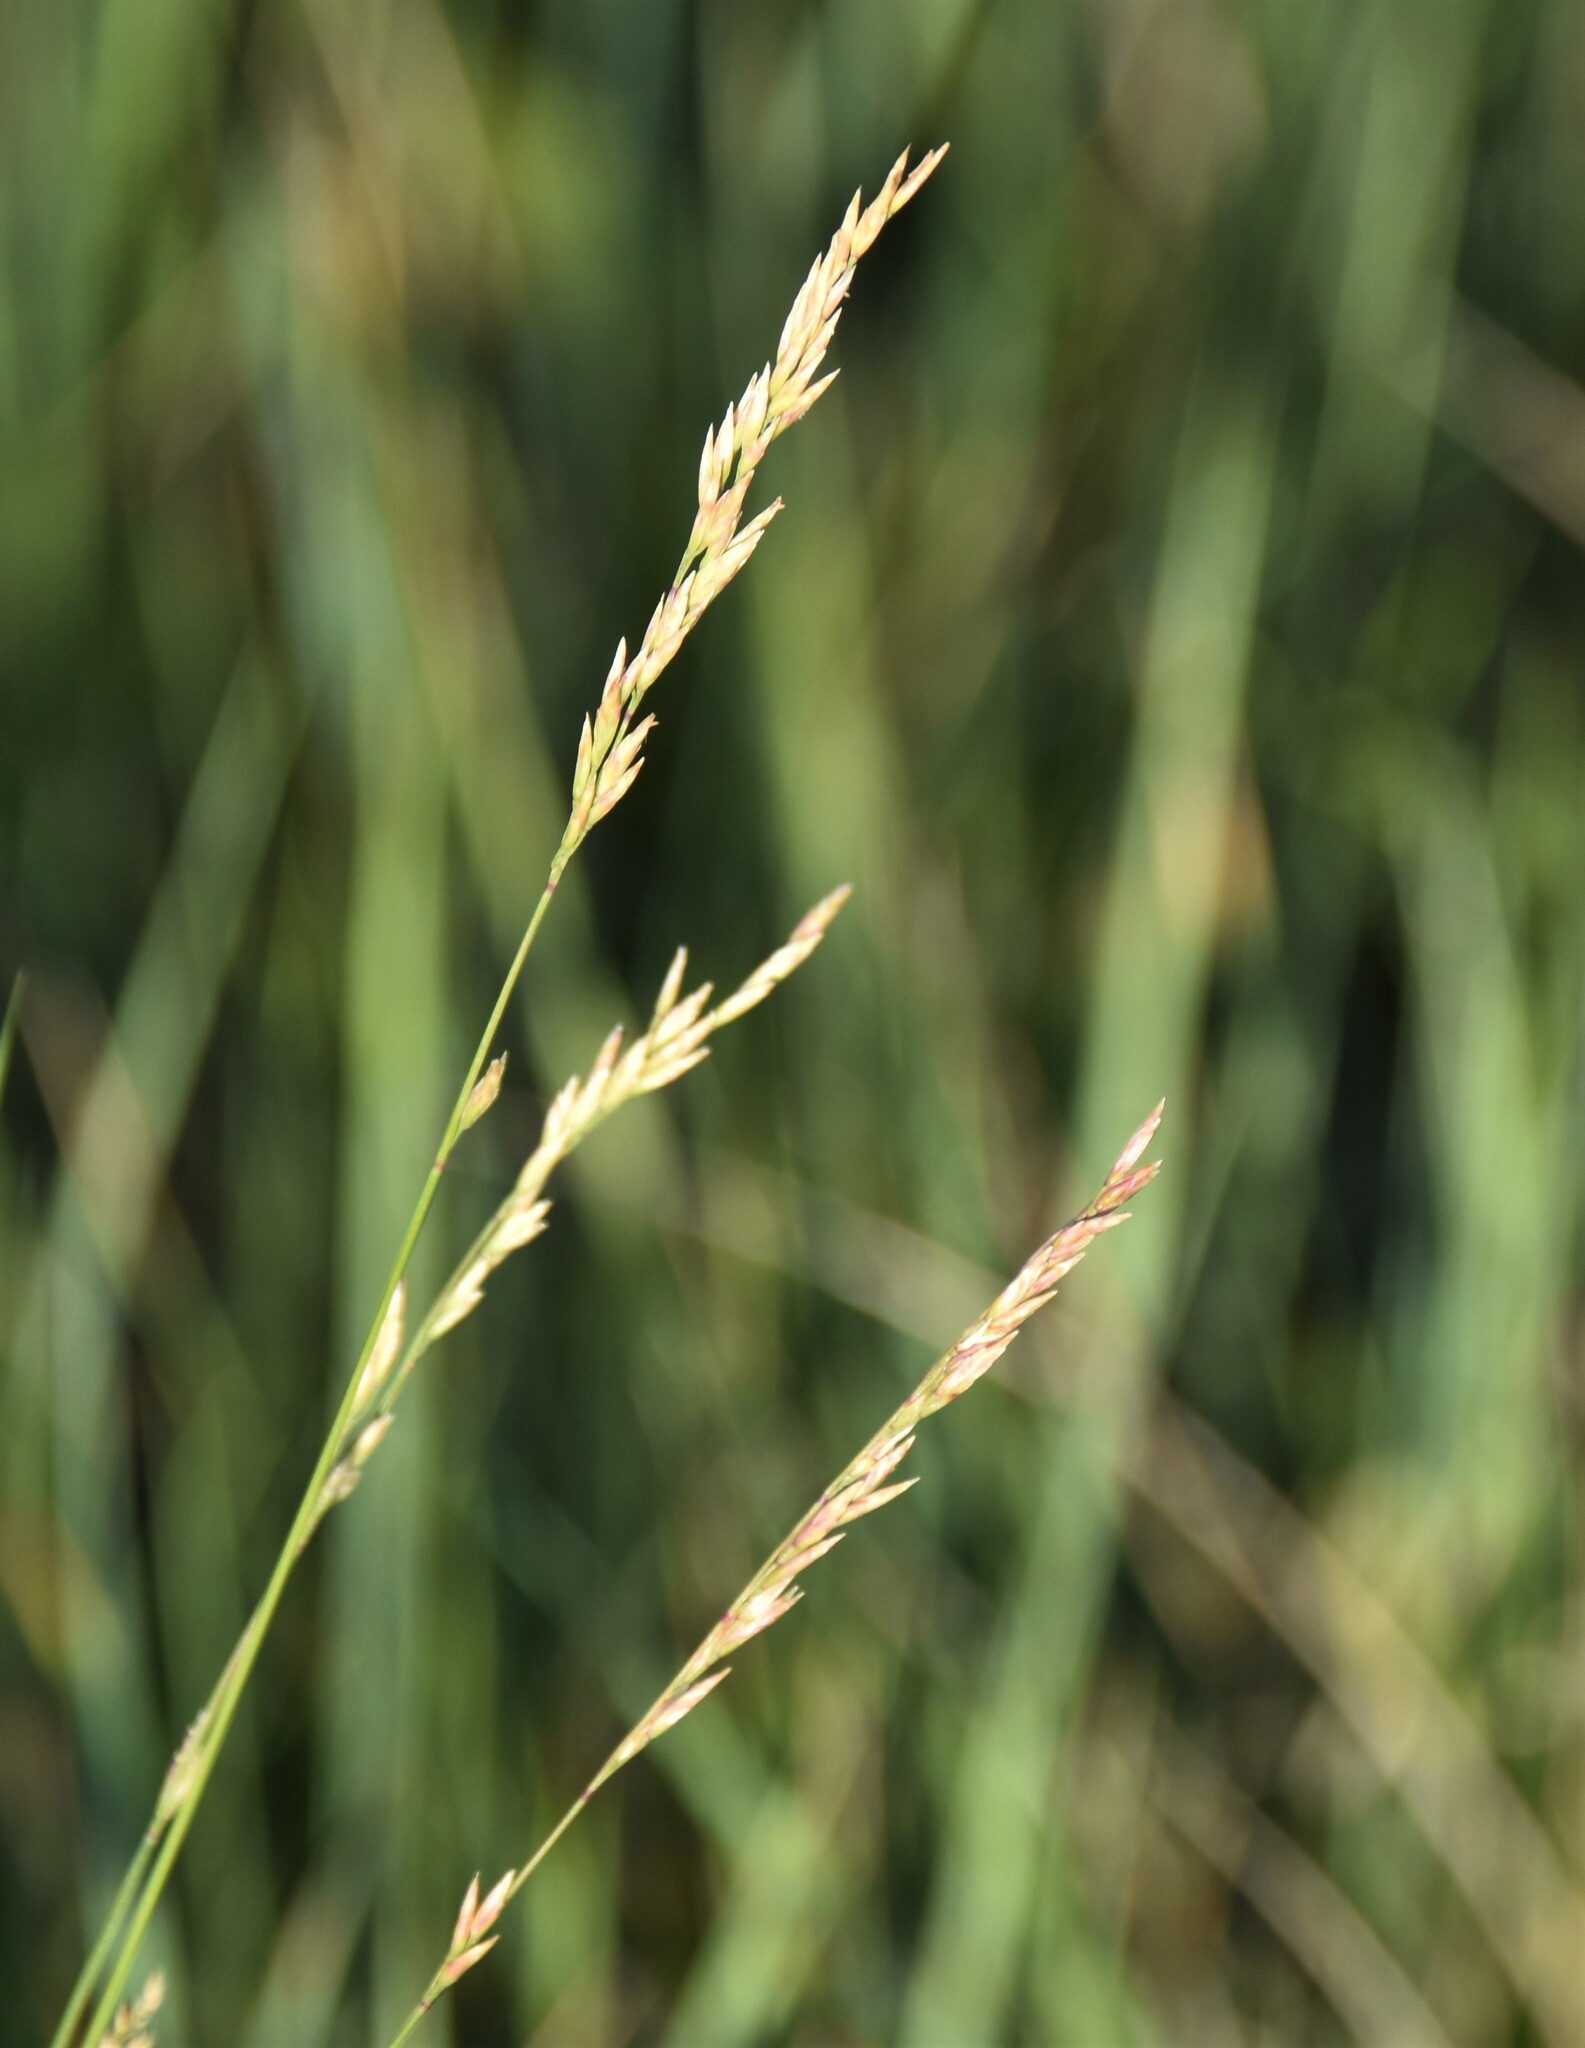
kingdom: Plantae
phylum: Tracheophyta
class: Liliopsida
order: Poales
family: Poaceae
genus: Poa
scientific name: Poa secunda
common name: Sandberg bluegrass
